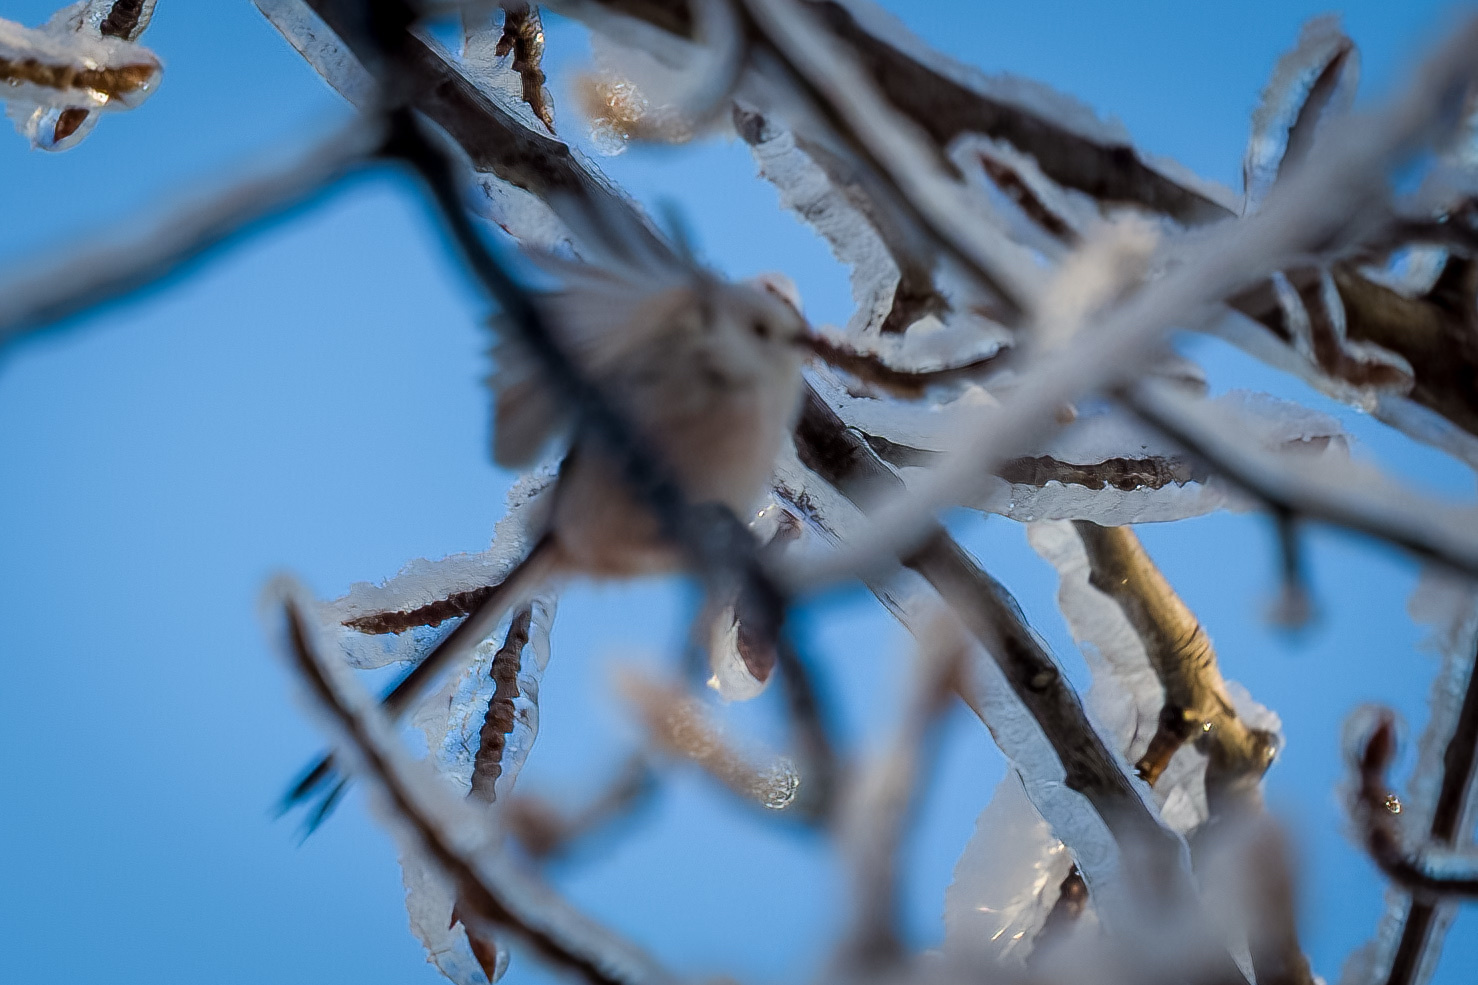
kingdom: Animalia
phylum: Chordata
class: Aves
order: Passeriformes
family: Aegithalidae
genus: Aegithalos
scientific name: Aegithalos caudatus
